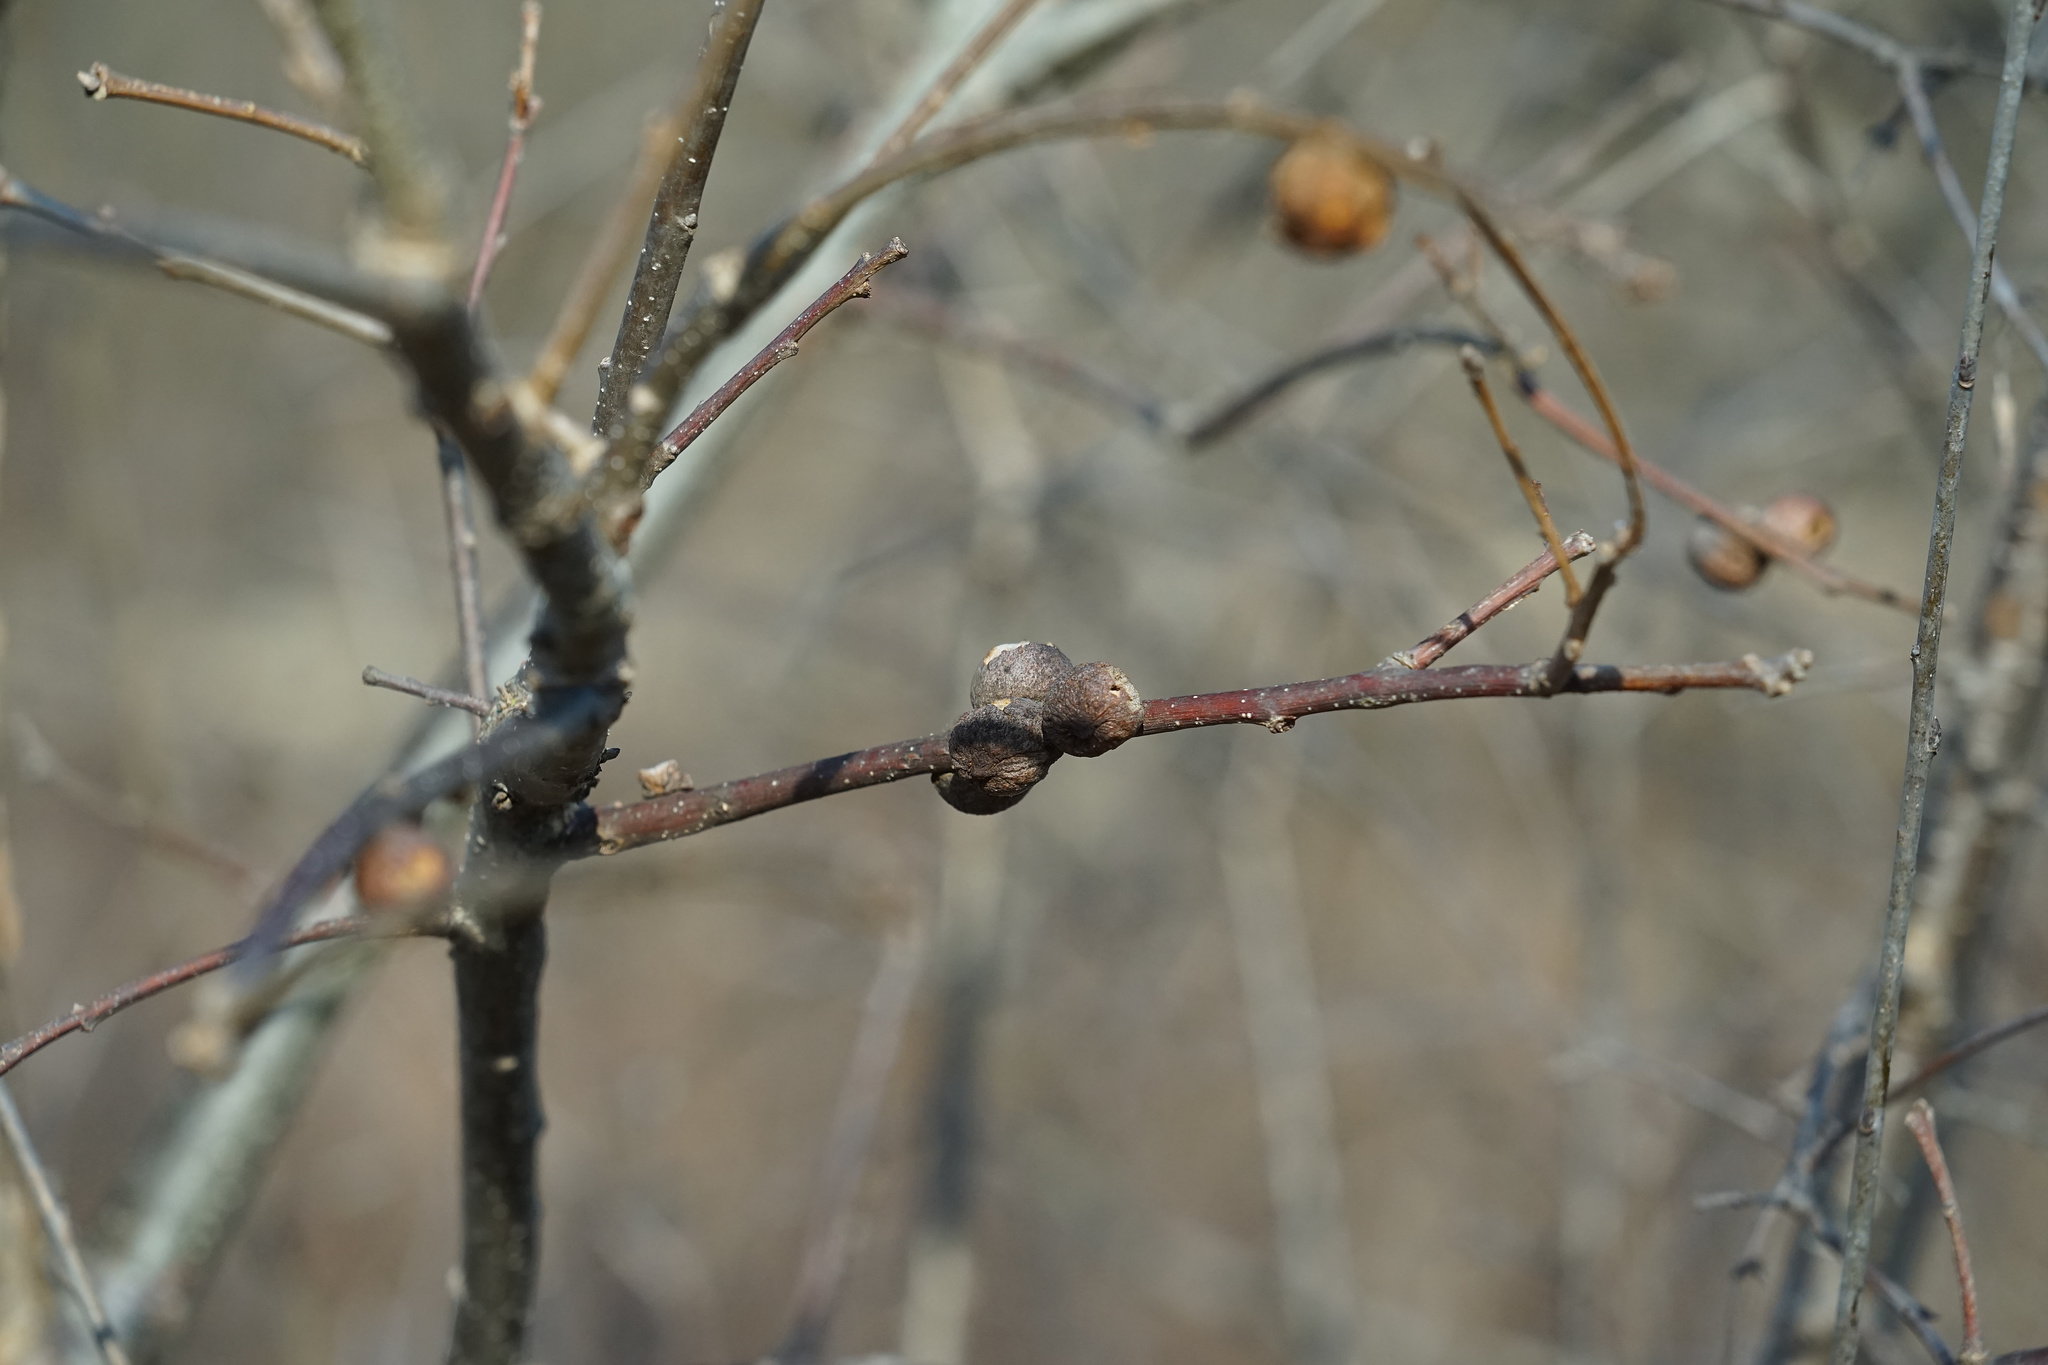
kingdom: Animalia
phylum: Arthropoda
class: Insecta
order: Hymenoptera
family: Cynipidae
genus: Disholcaspis
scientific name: Disholcaspis
